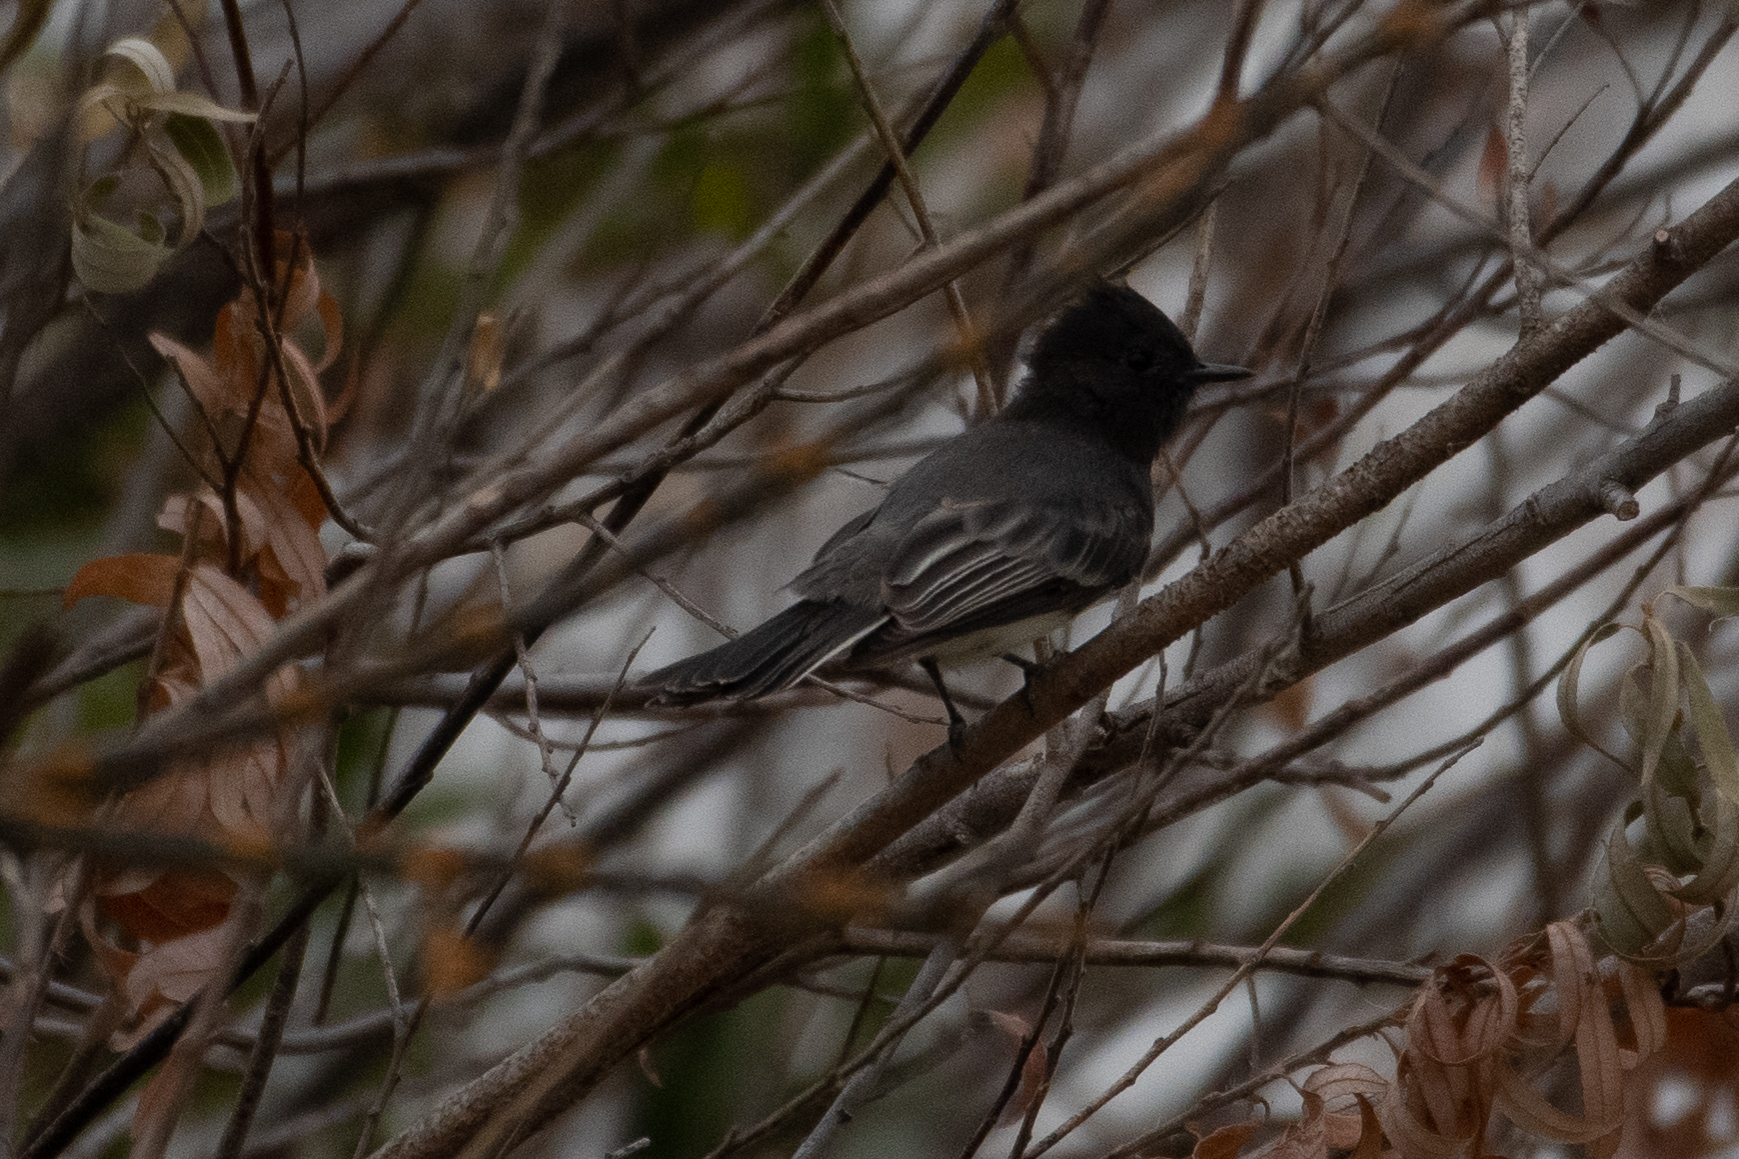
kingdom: Animalia
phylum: Chordata
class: Aves
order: Passeriformes
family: Tyrannidae
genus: Sayornis
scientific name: Sayornis nigricans
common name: Black phoebe
